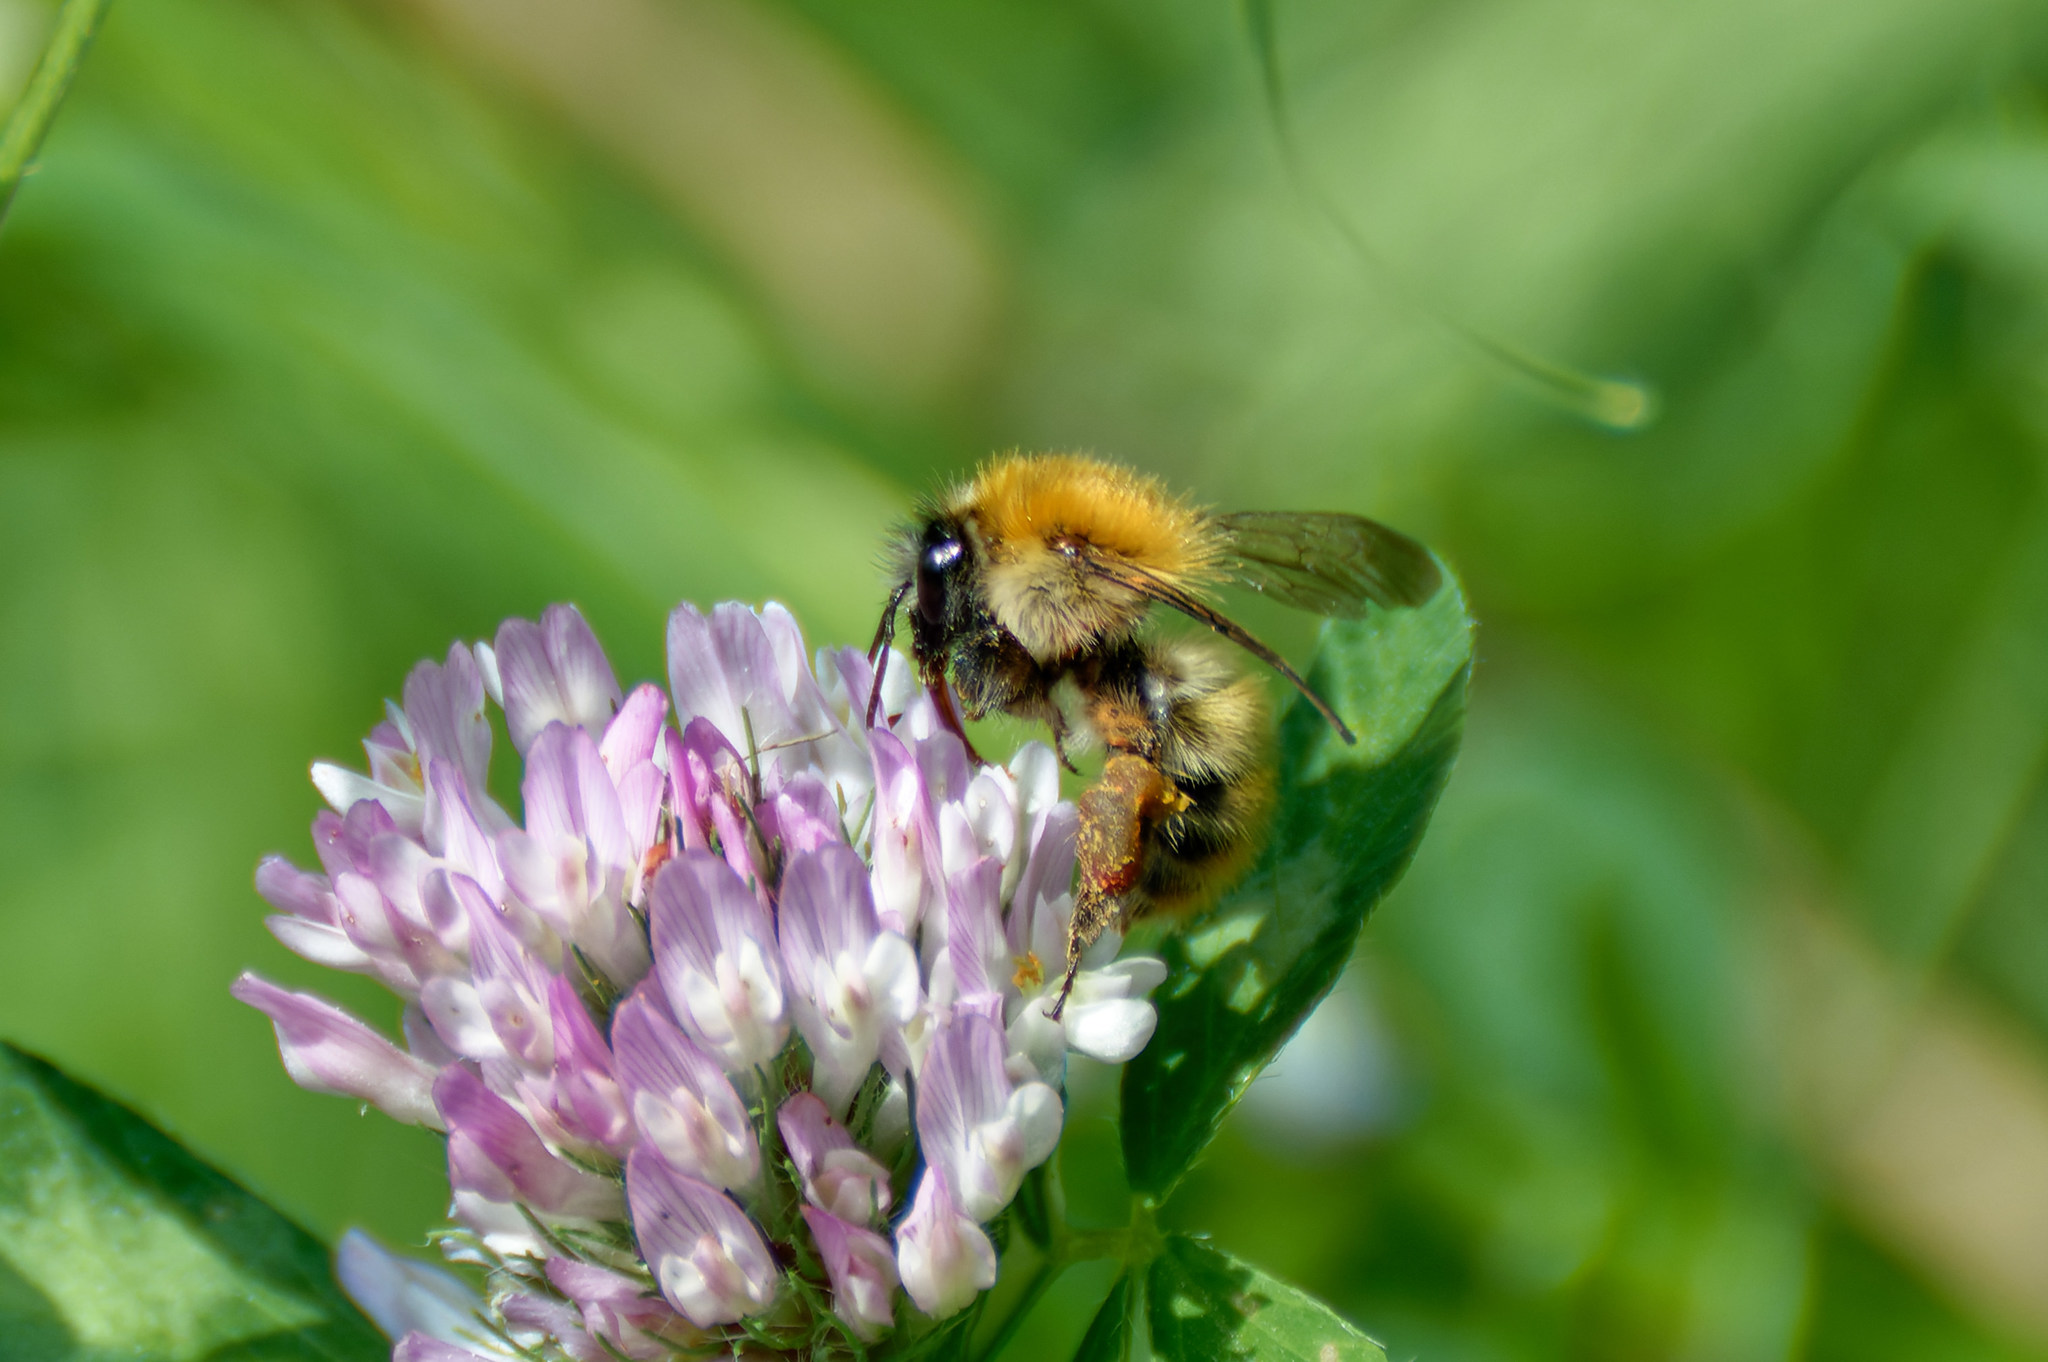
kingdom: Animalia
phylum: Arthropoda
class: Insecta
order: Hymenoptera
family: Apidae
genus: Bombus
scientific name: Bombus pascuorum
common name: Common carder bee
